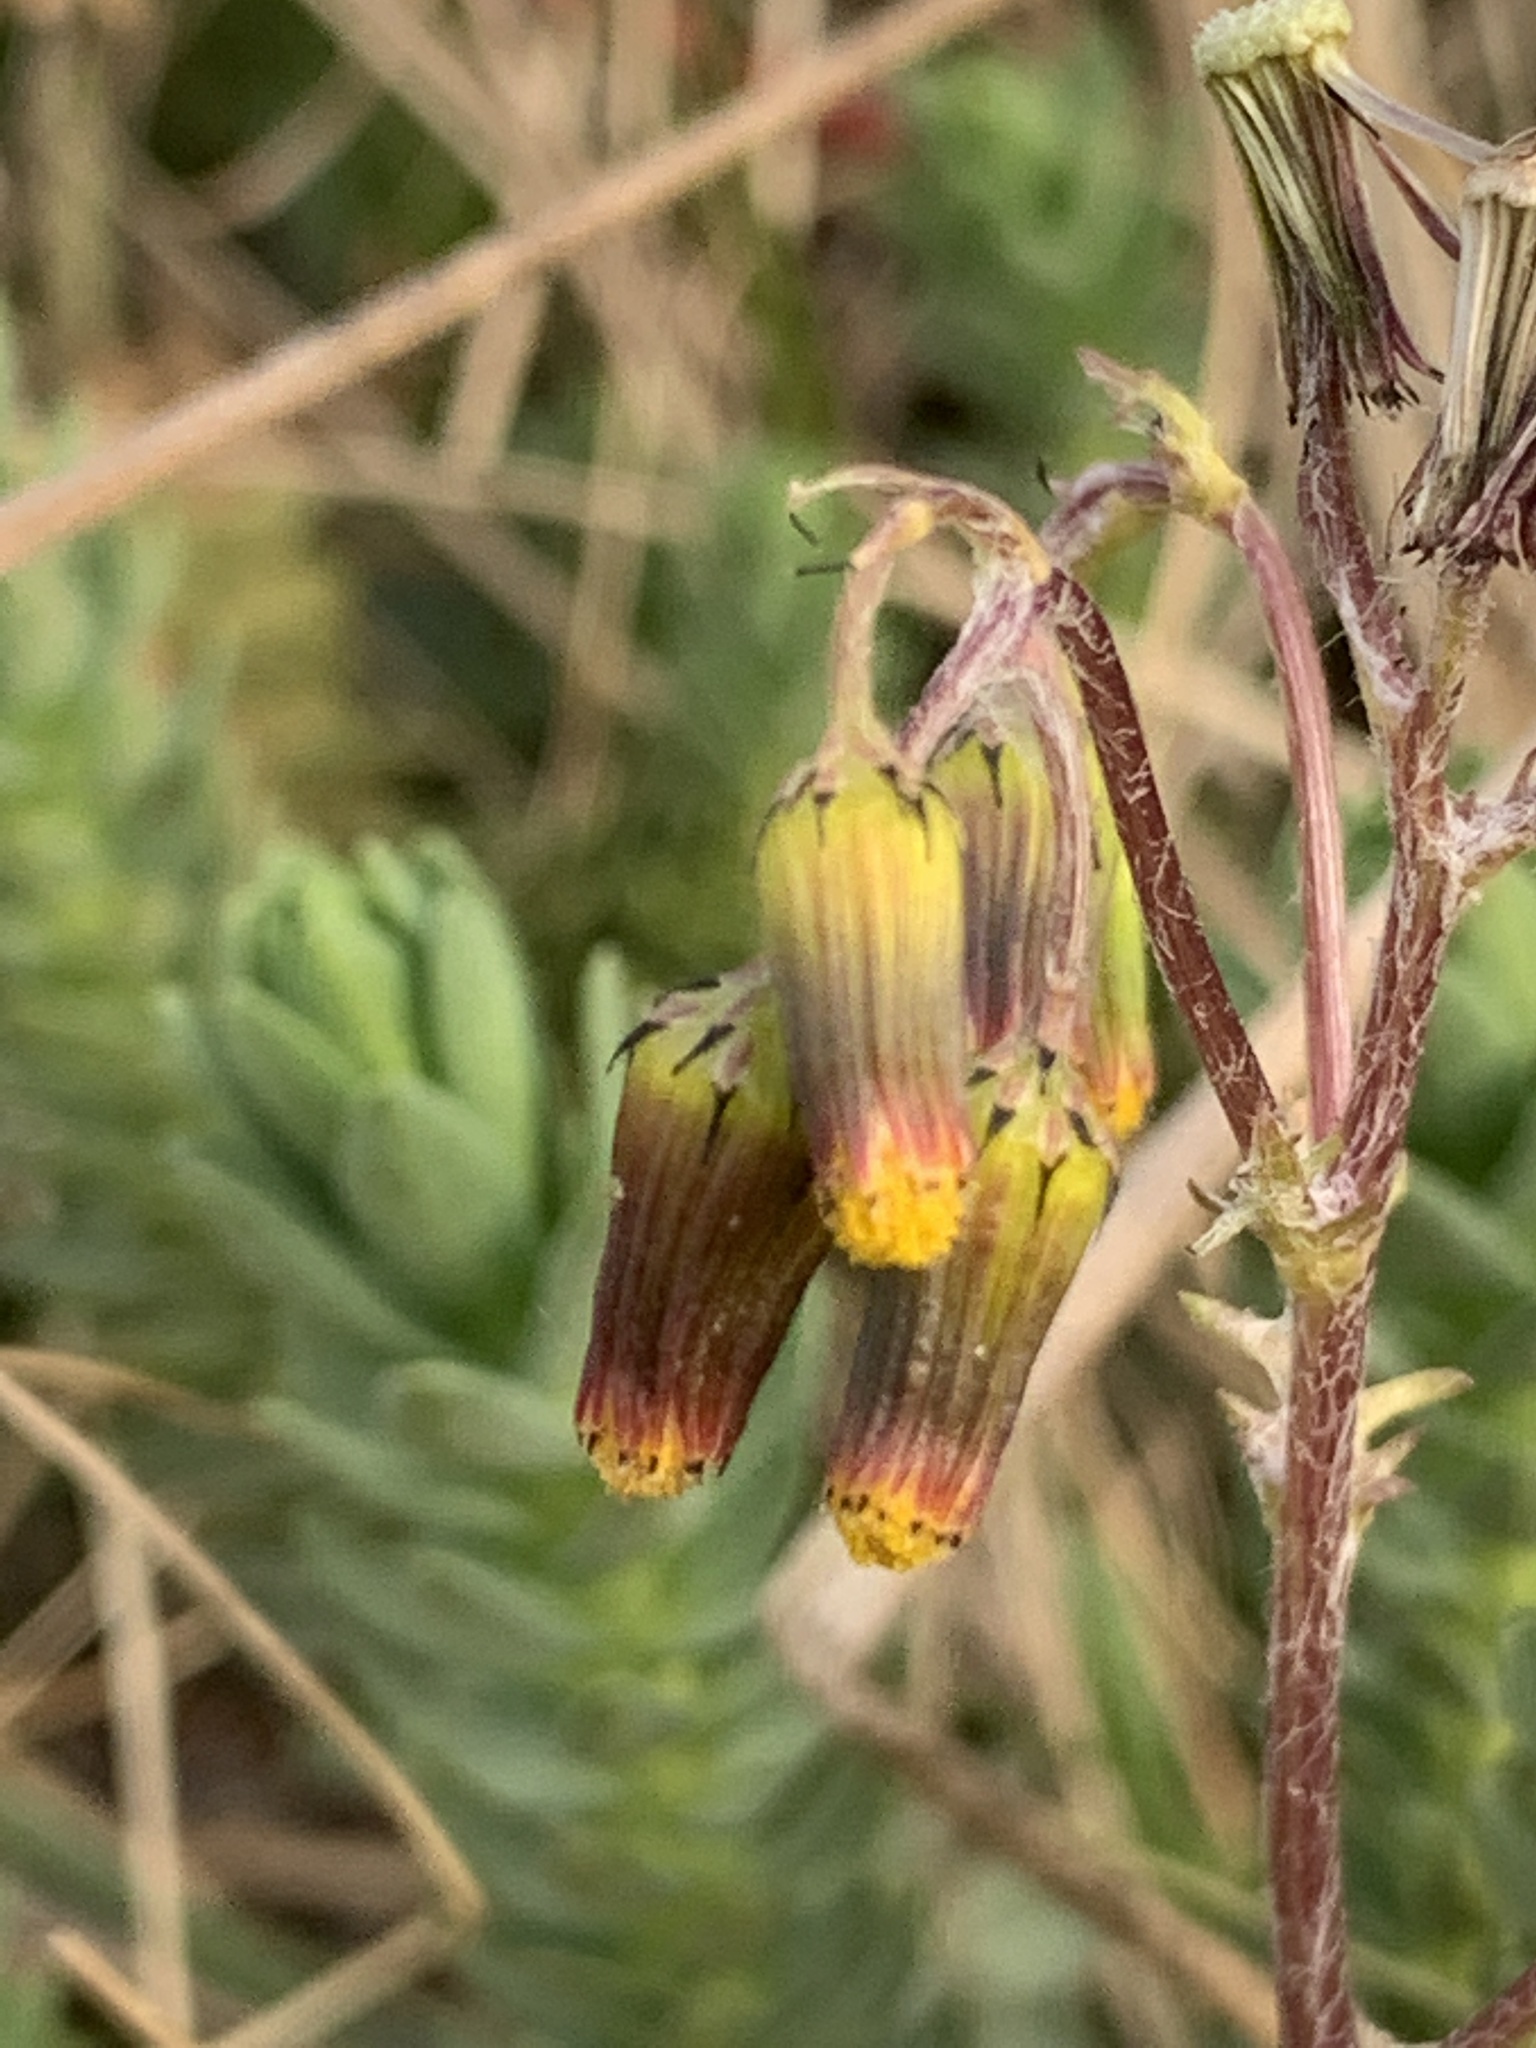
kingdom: Plantae
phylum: Tracheophyta
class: Magnoliopsida
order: Asterales
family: Asteraceae
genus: Senecio
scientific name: Senecio vulgaris
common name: Old-man-in-the-spring
